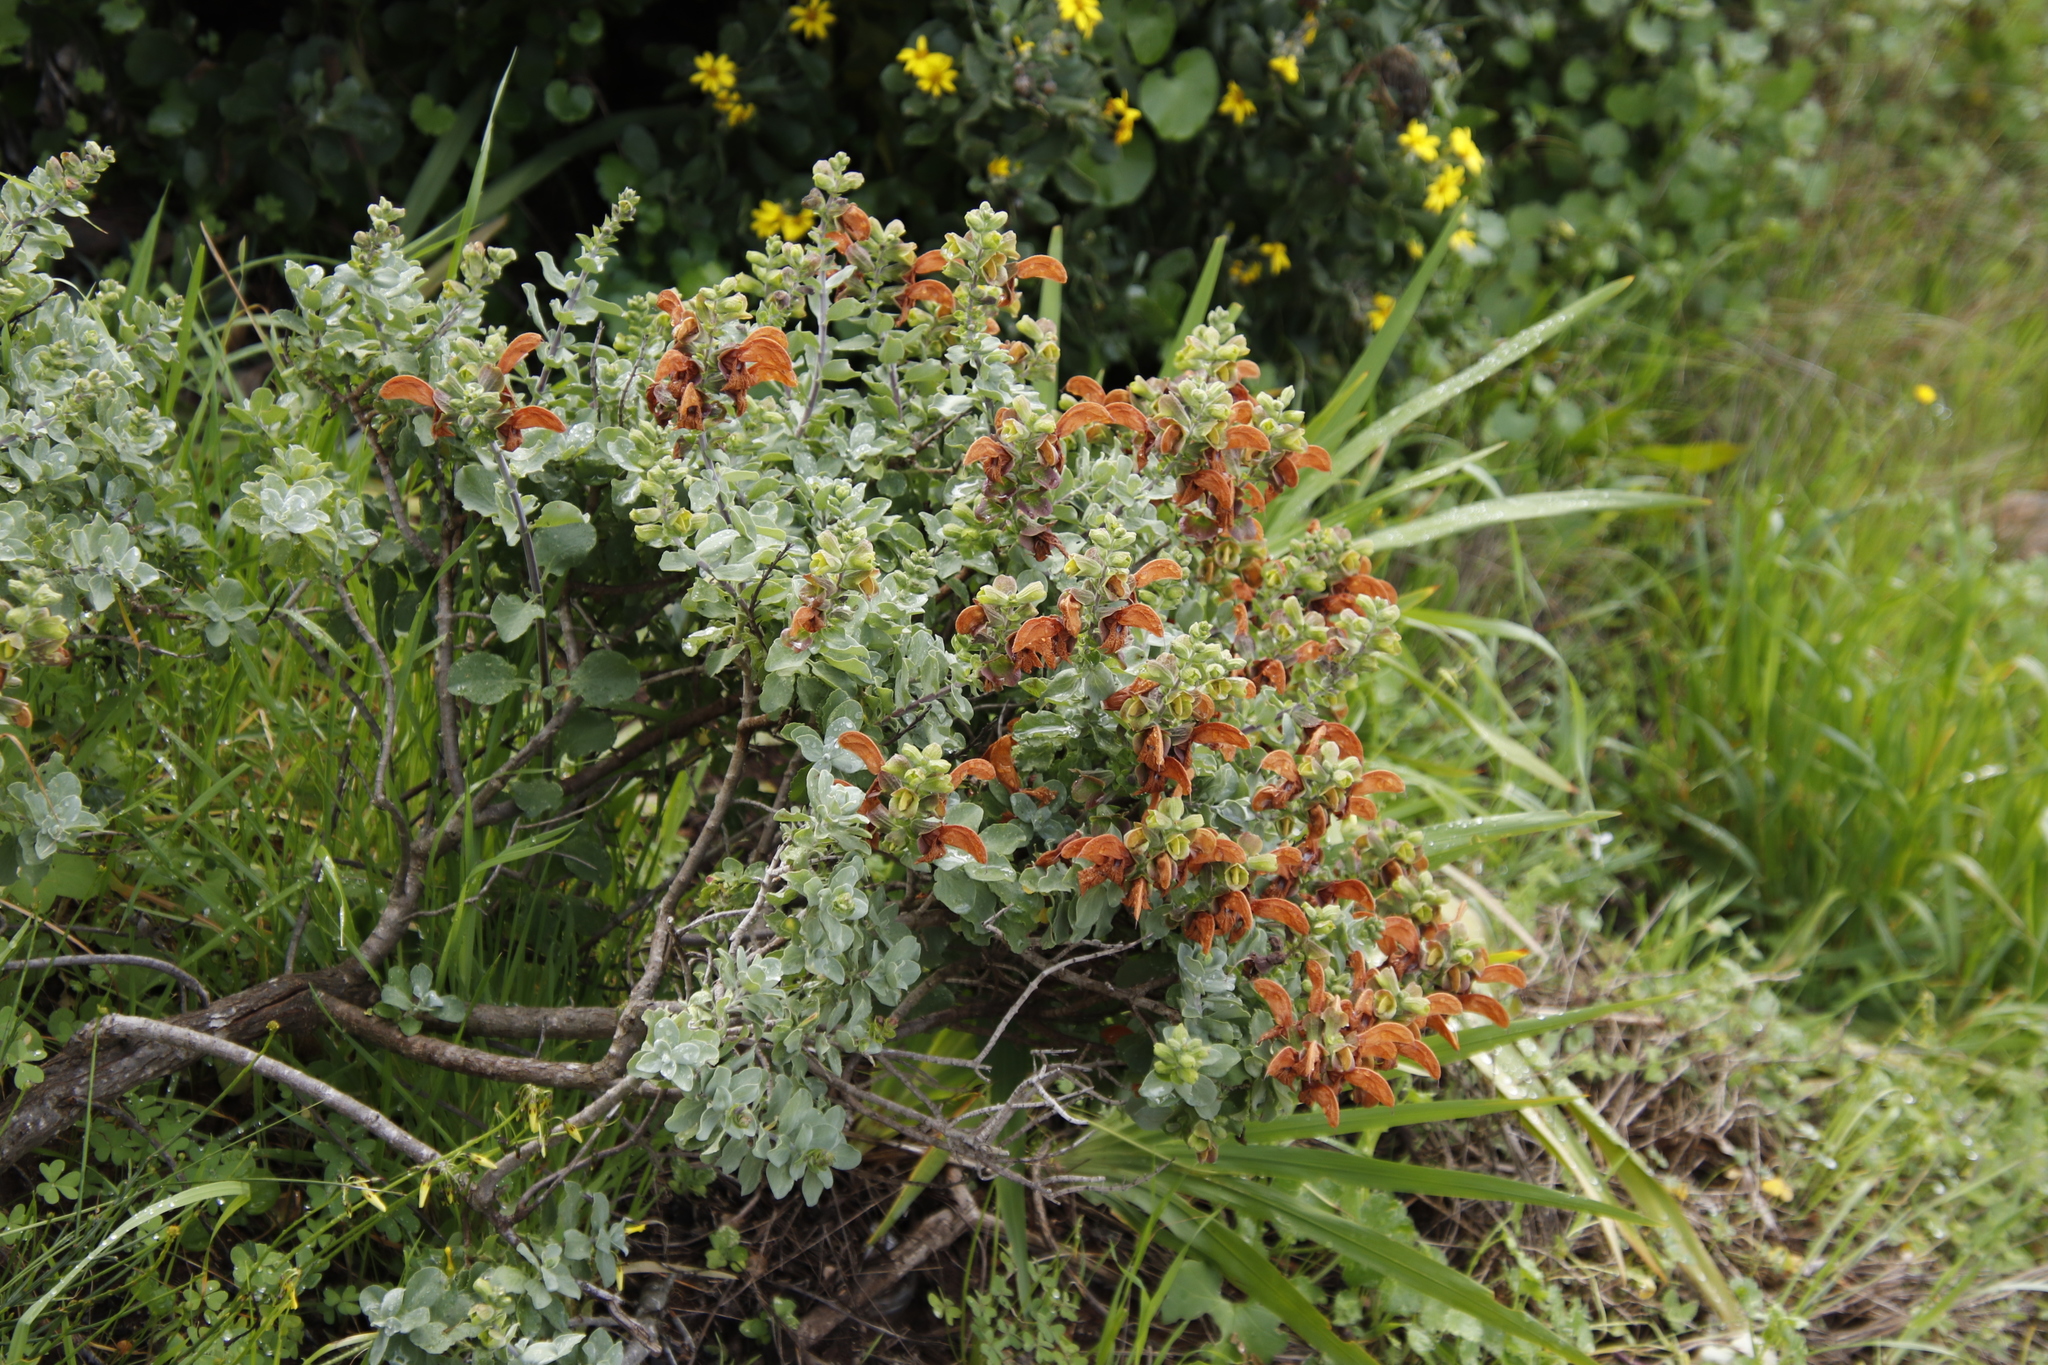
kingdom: Plantae
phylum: Tracheophyta
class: Magnoliopsida
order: Lamiales
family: Lamiaceae
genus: Salvia
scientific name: Salvia aurea
